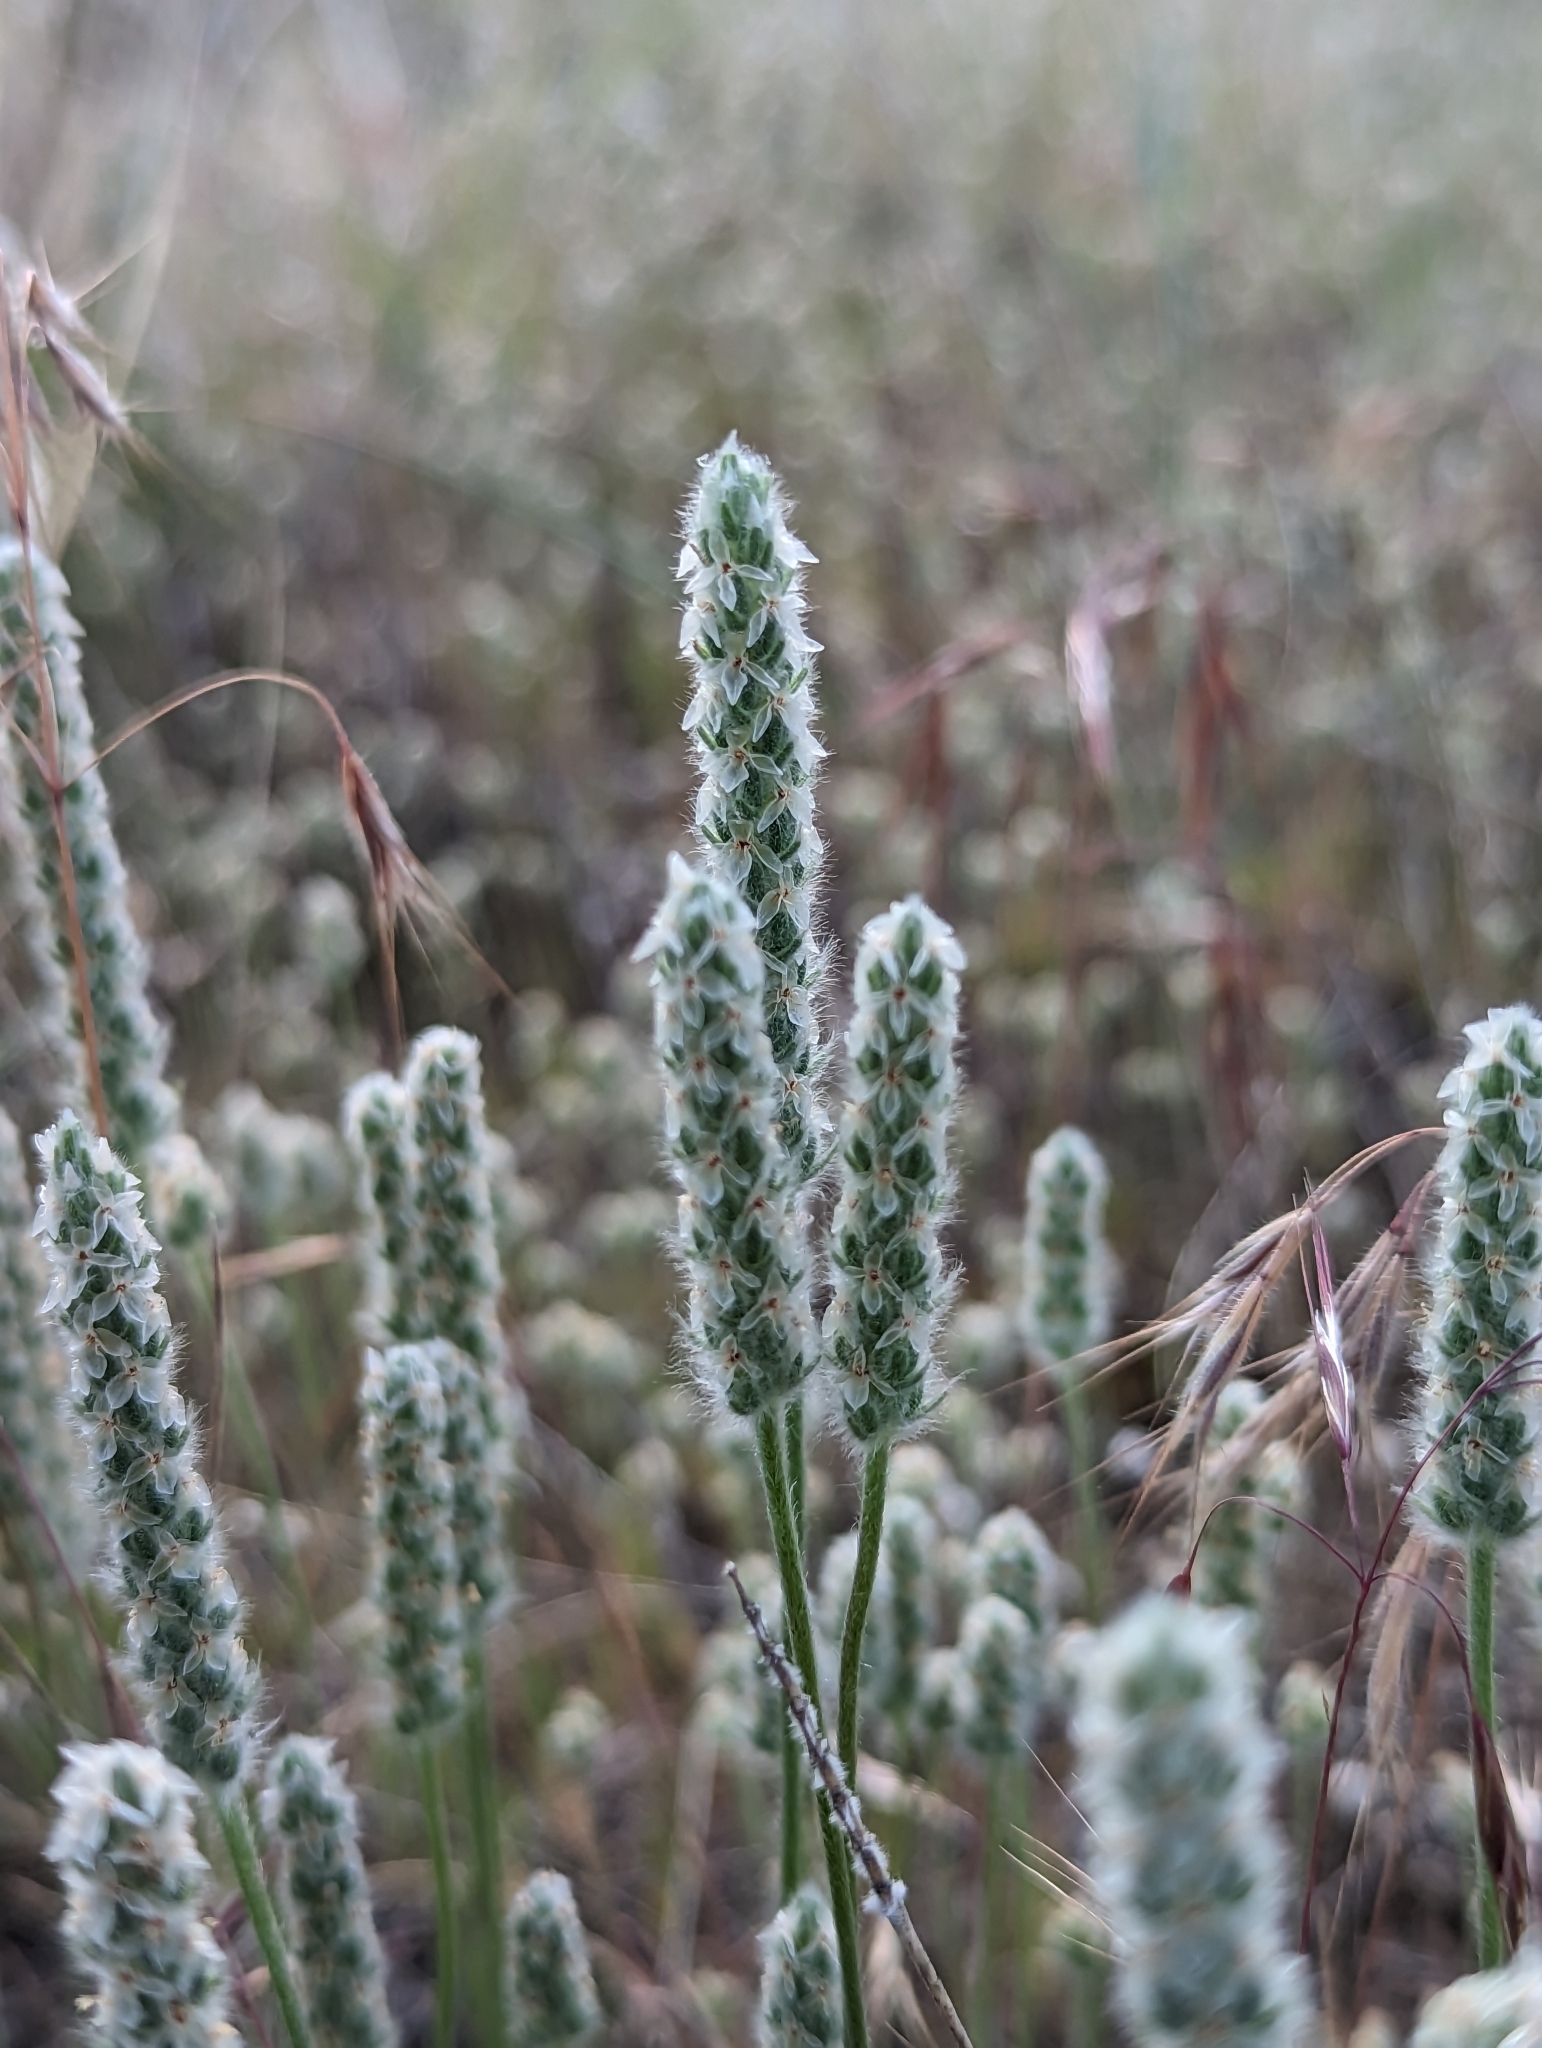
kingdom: Plantae
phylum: Tracheophyta
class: Magnoliopsida
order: Lamiales
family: Plantaginaceae
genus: Plantago
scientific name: Plantago patagonica
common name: Patagonia indian-wheat
